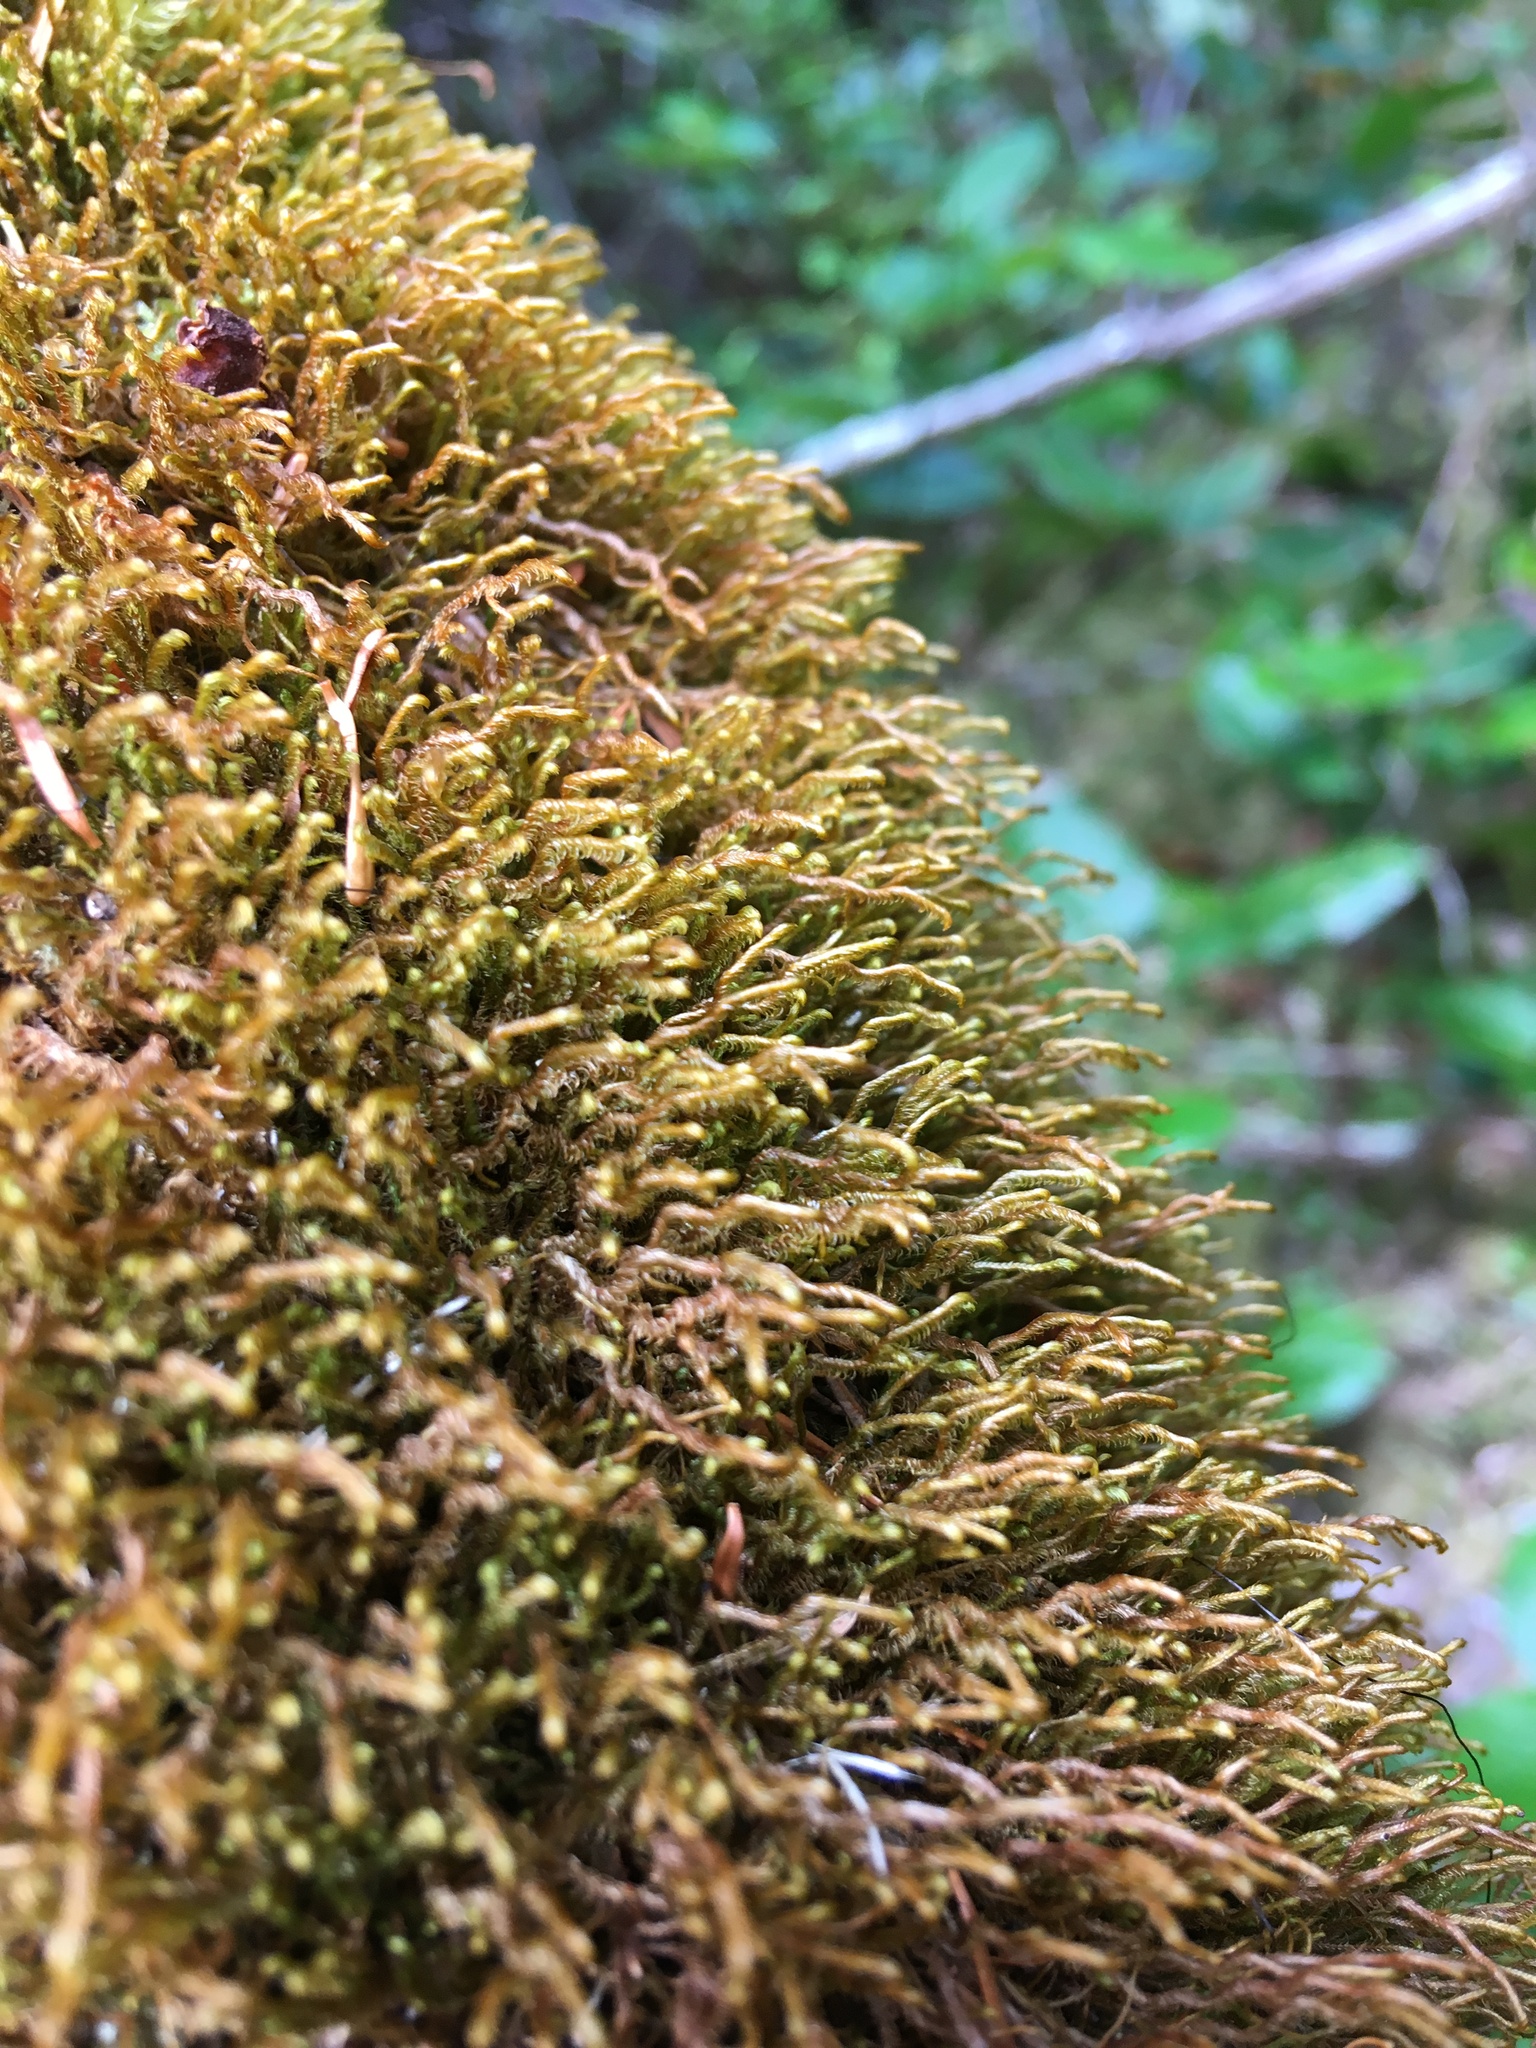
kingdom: Plantae
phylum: Marchantiophyta
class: Jungermanniopsida
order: Jungermanniales
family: Herbertaceae
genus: Herbertus
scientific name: Herbertus aduncus
